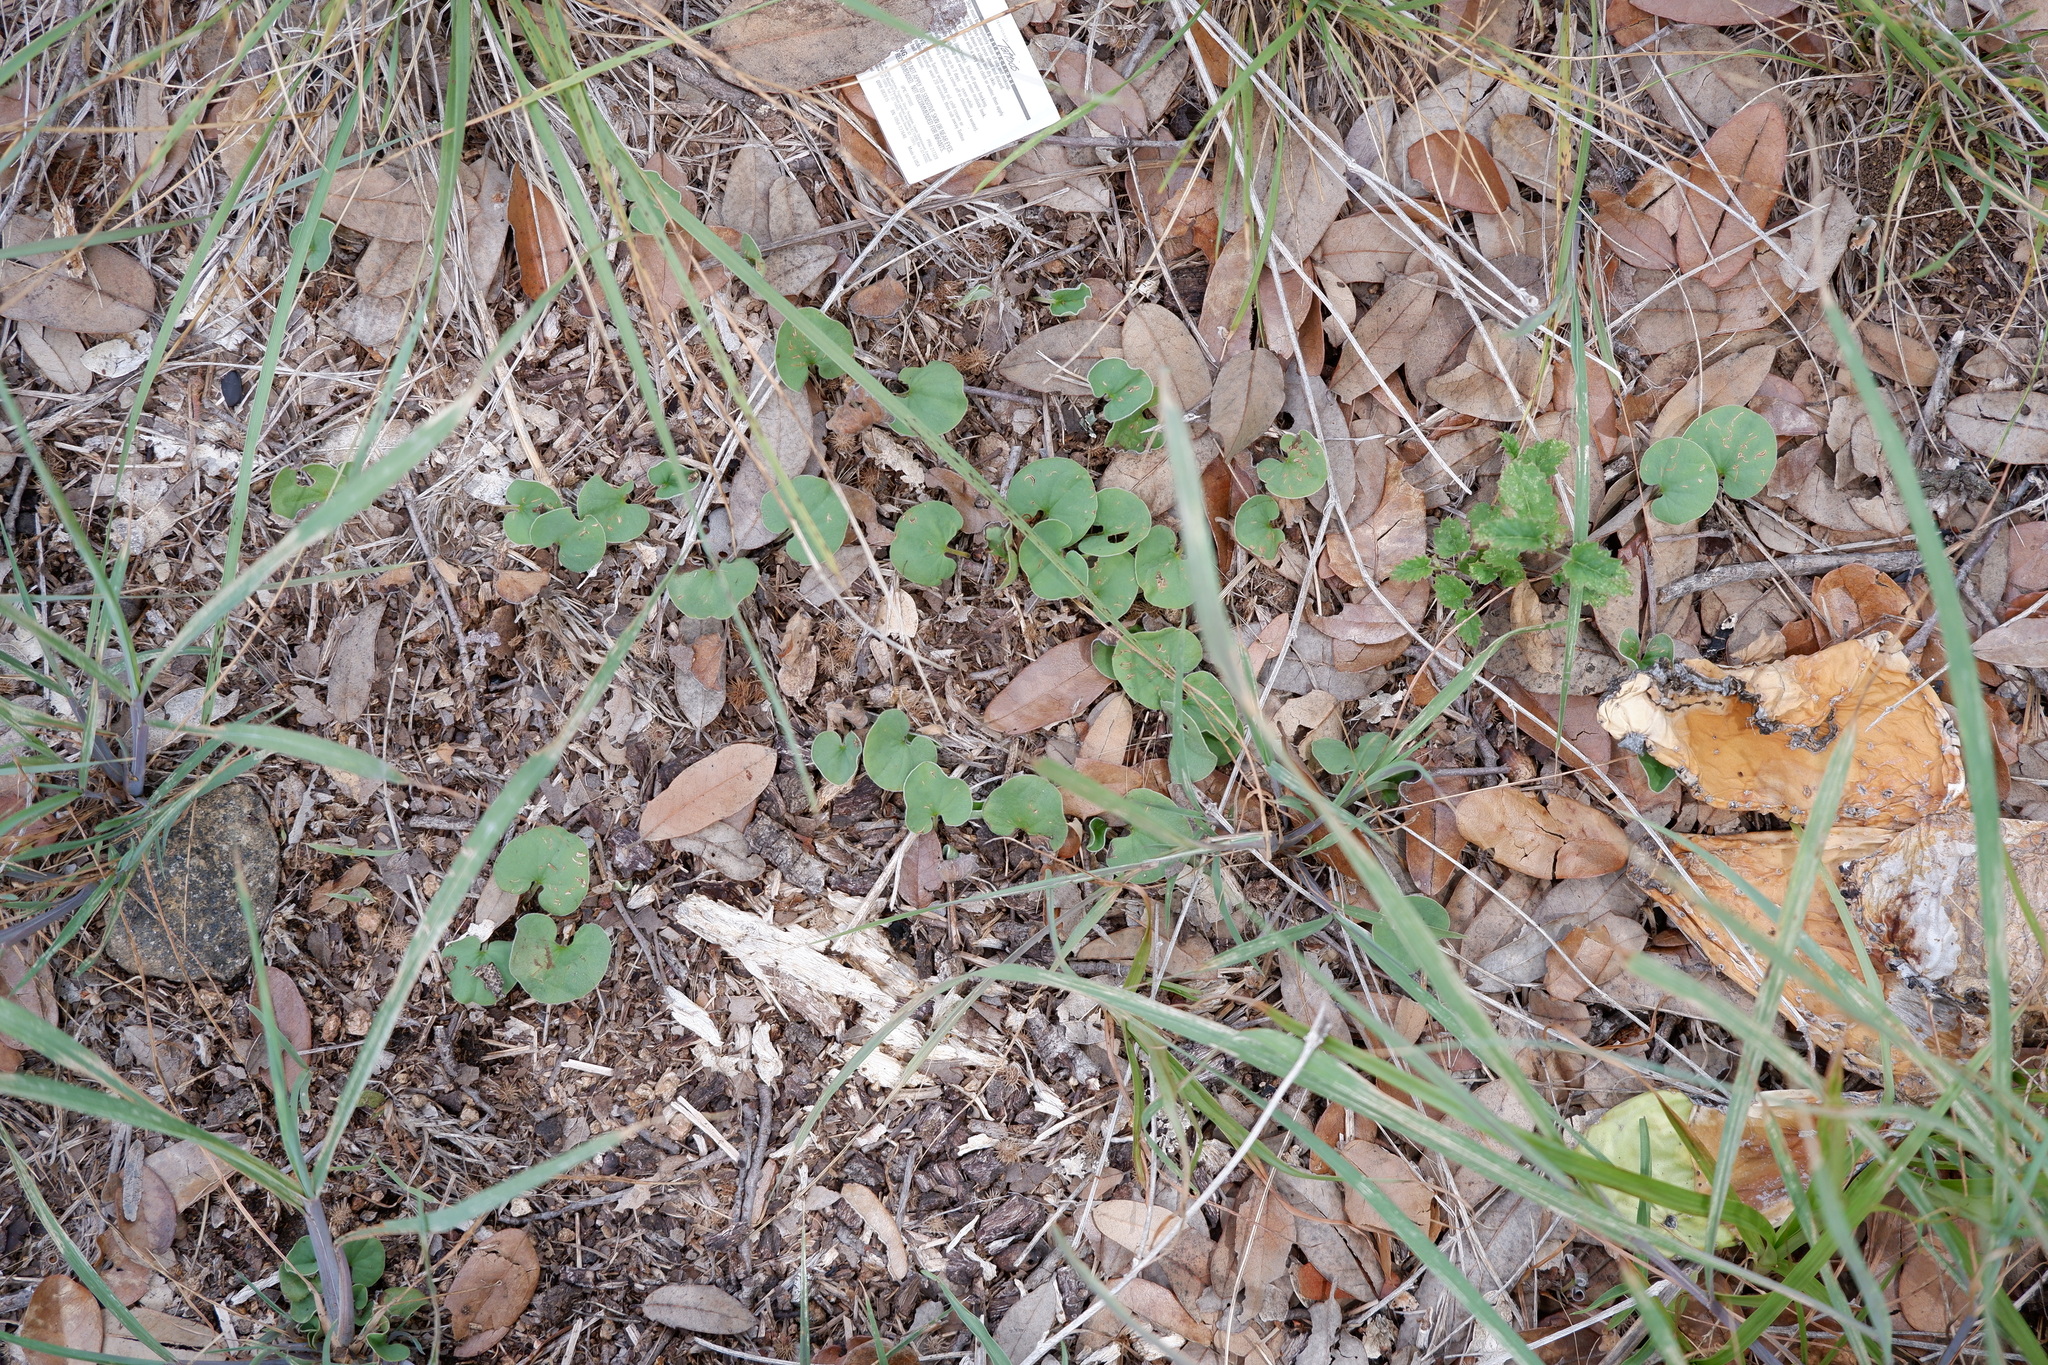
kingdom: Plantae
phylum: Tracheophyta
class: Magnoliopsida
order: Solanales
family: Convolvulaceae
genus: Dichondra
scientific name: Dichondra carolinensis
